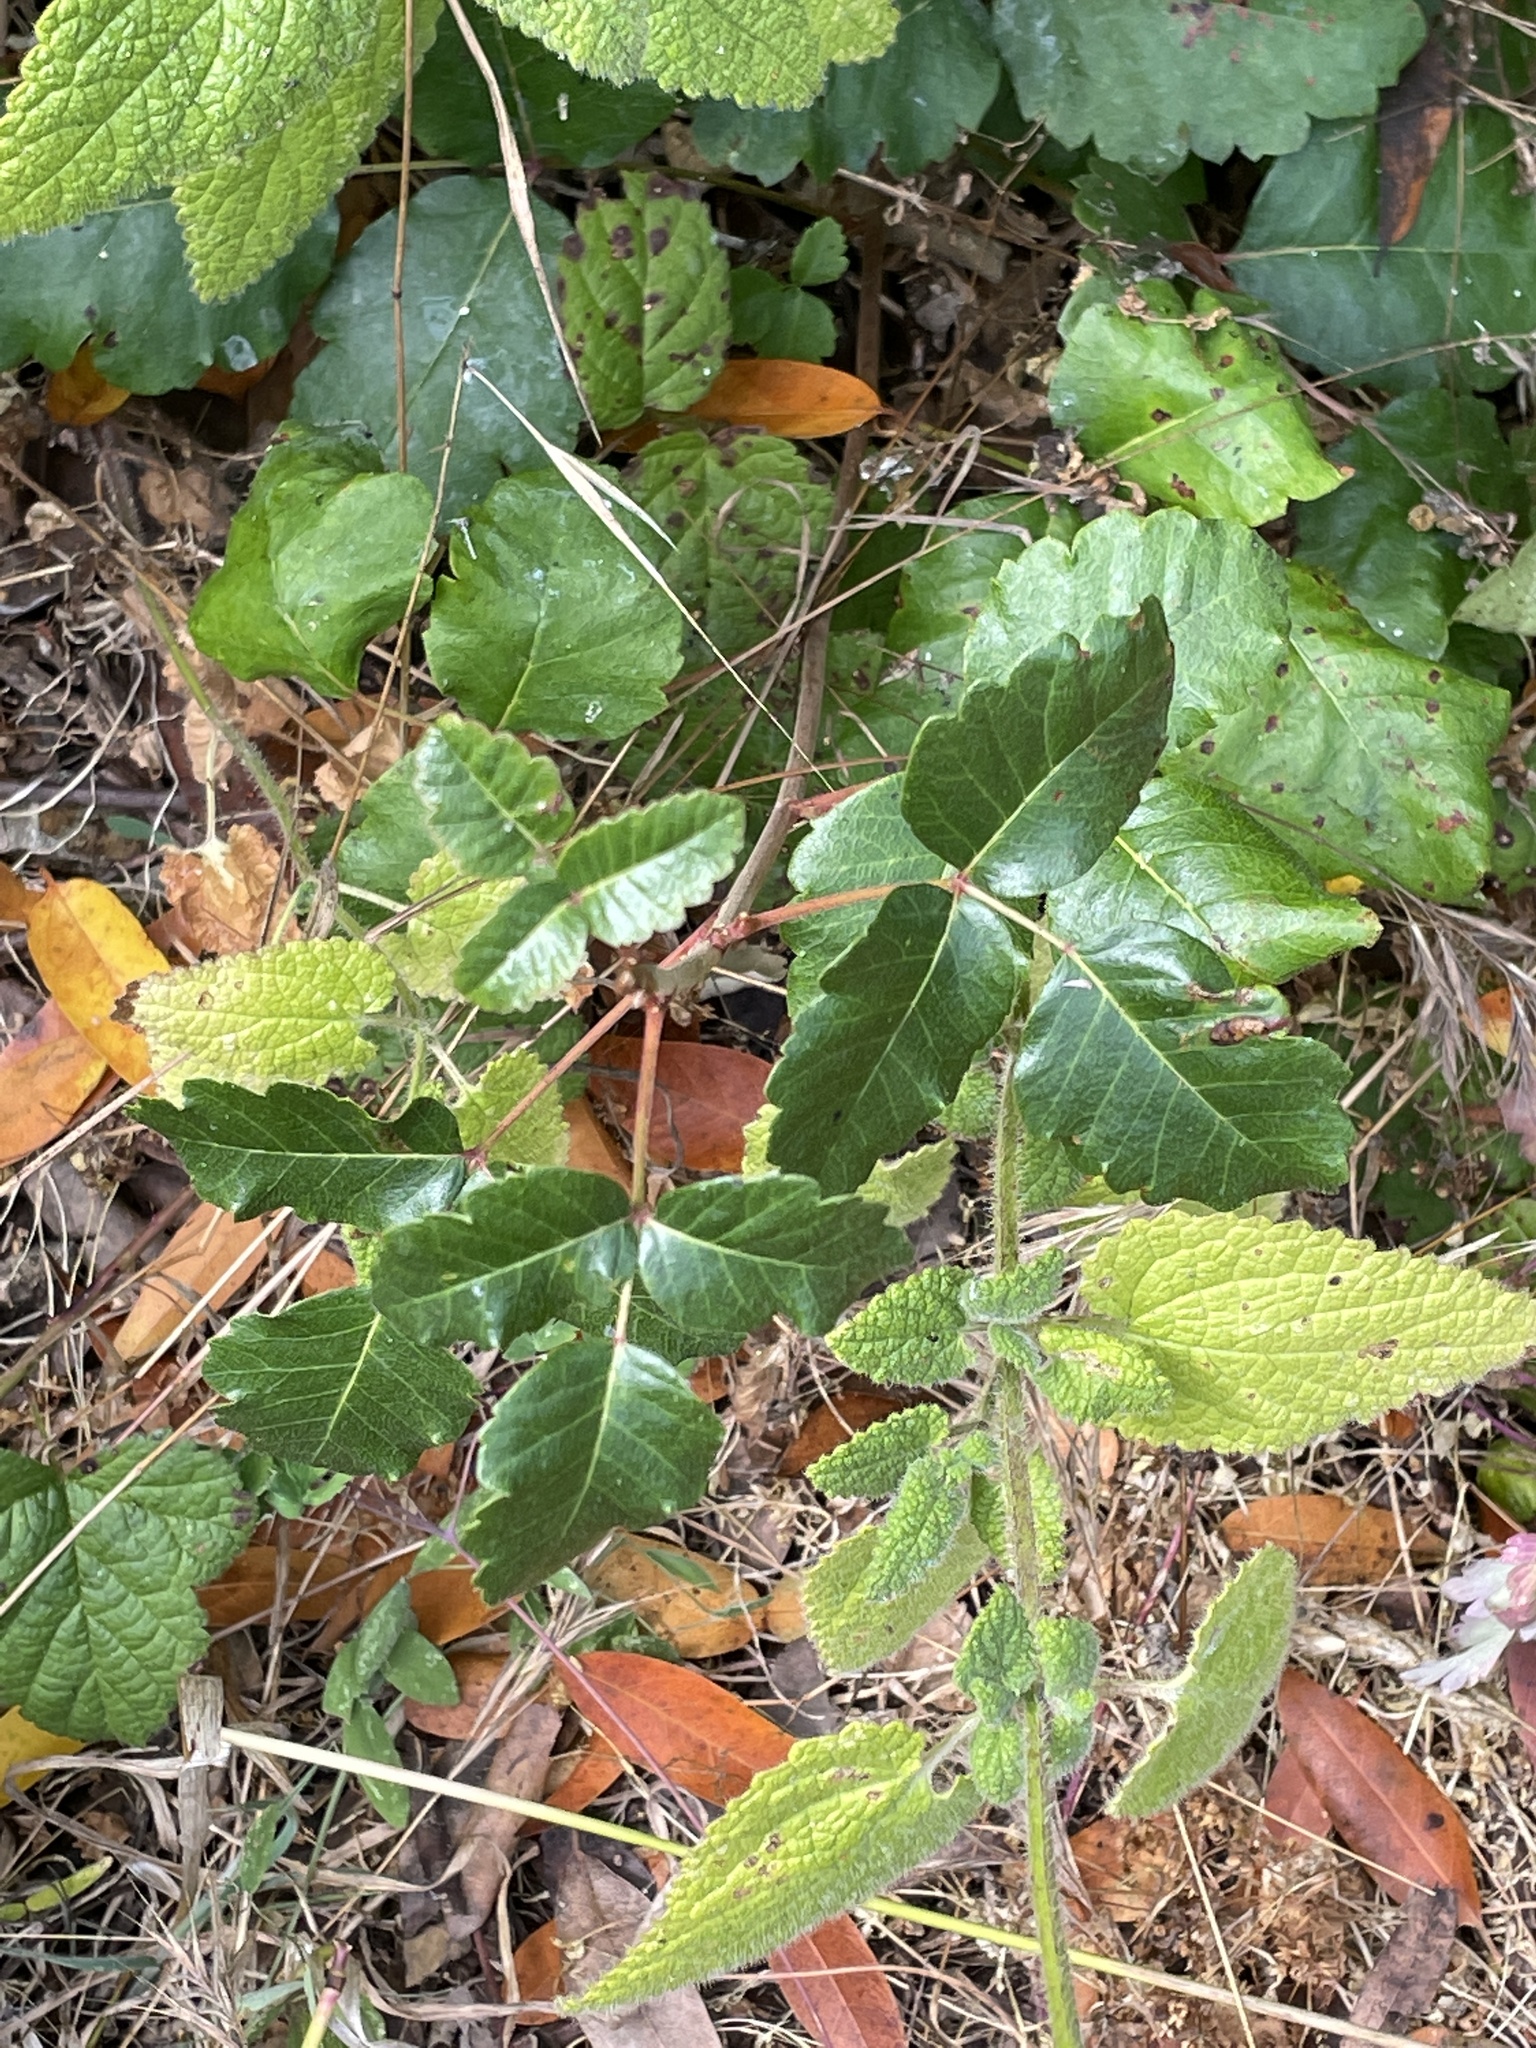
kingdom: Plantae
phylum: Tracheophyta
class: Magnoliopsida
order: Sapindales
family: Anacardiaceae
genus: Toxicodendron
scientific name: Toxicodendron diversilobum
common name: Pacific poison-oak
